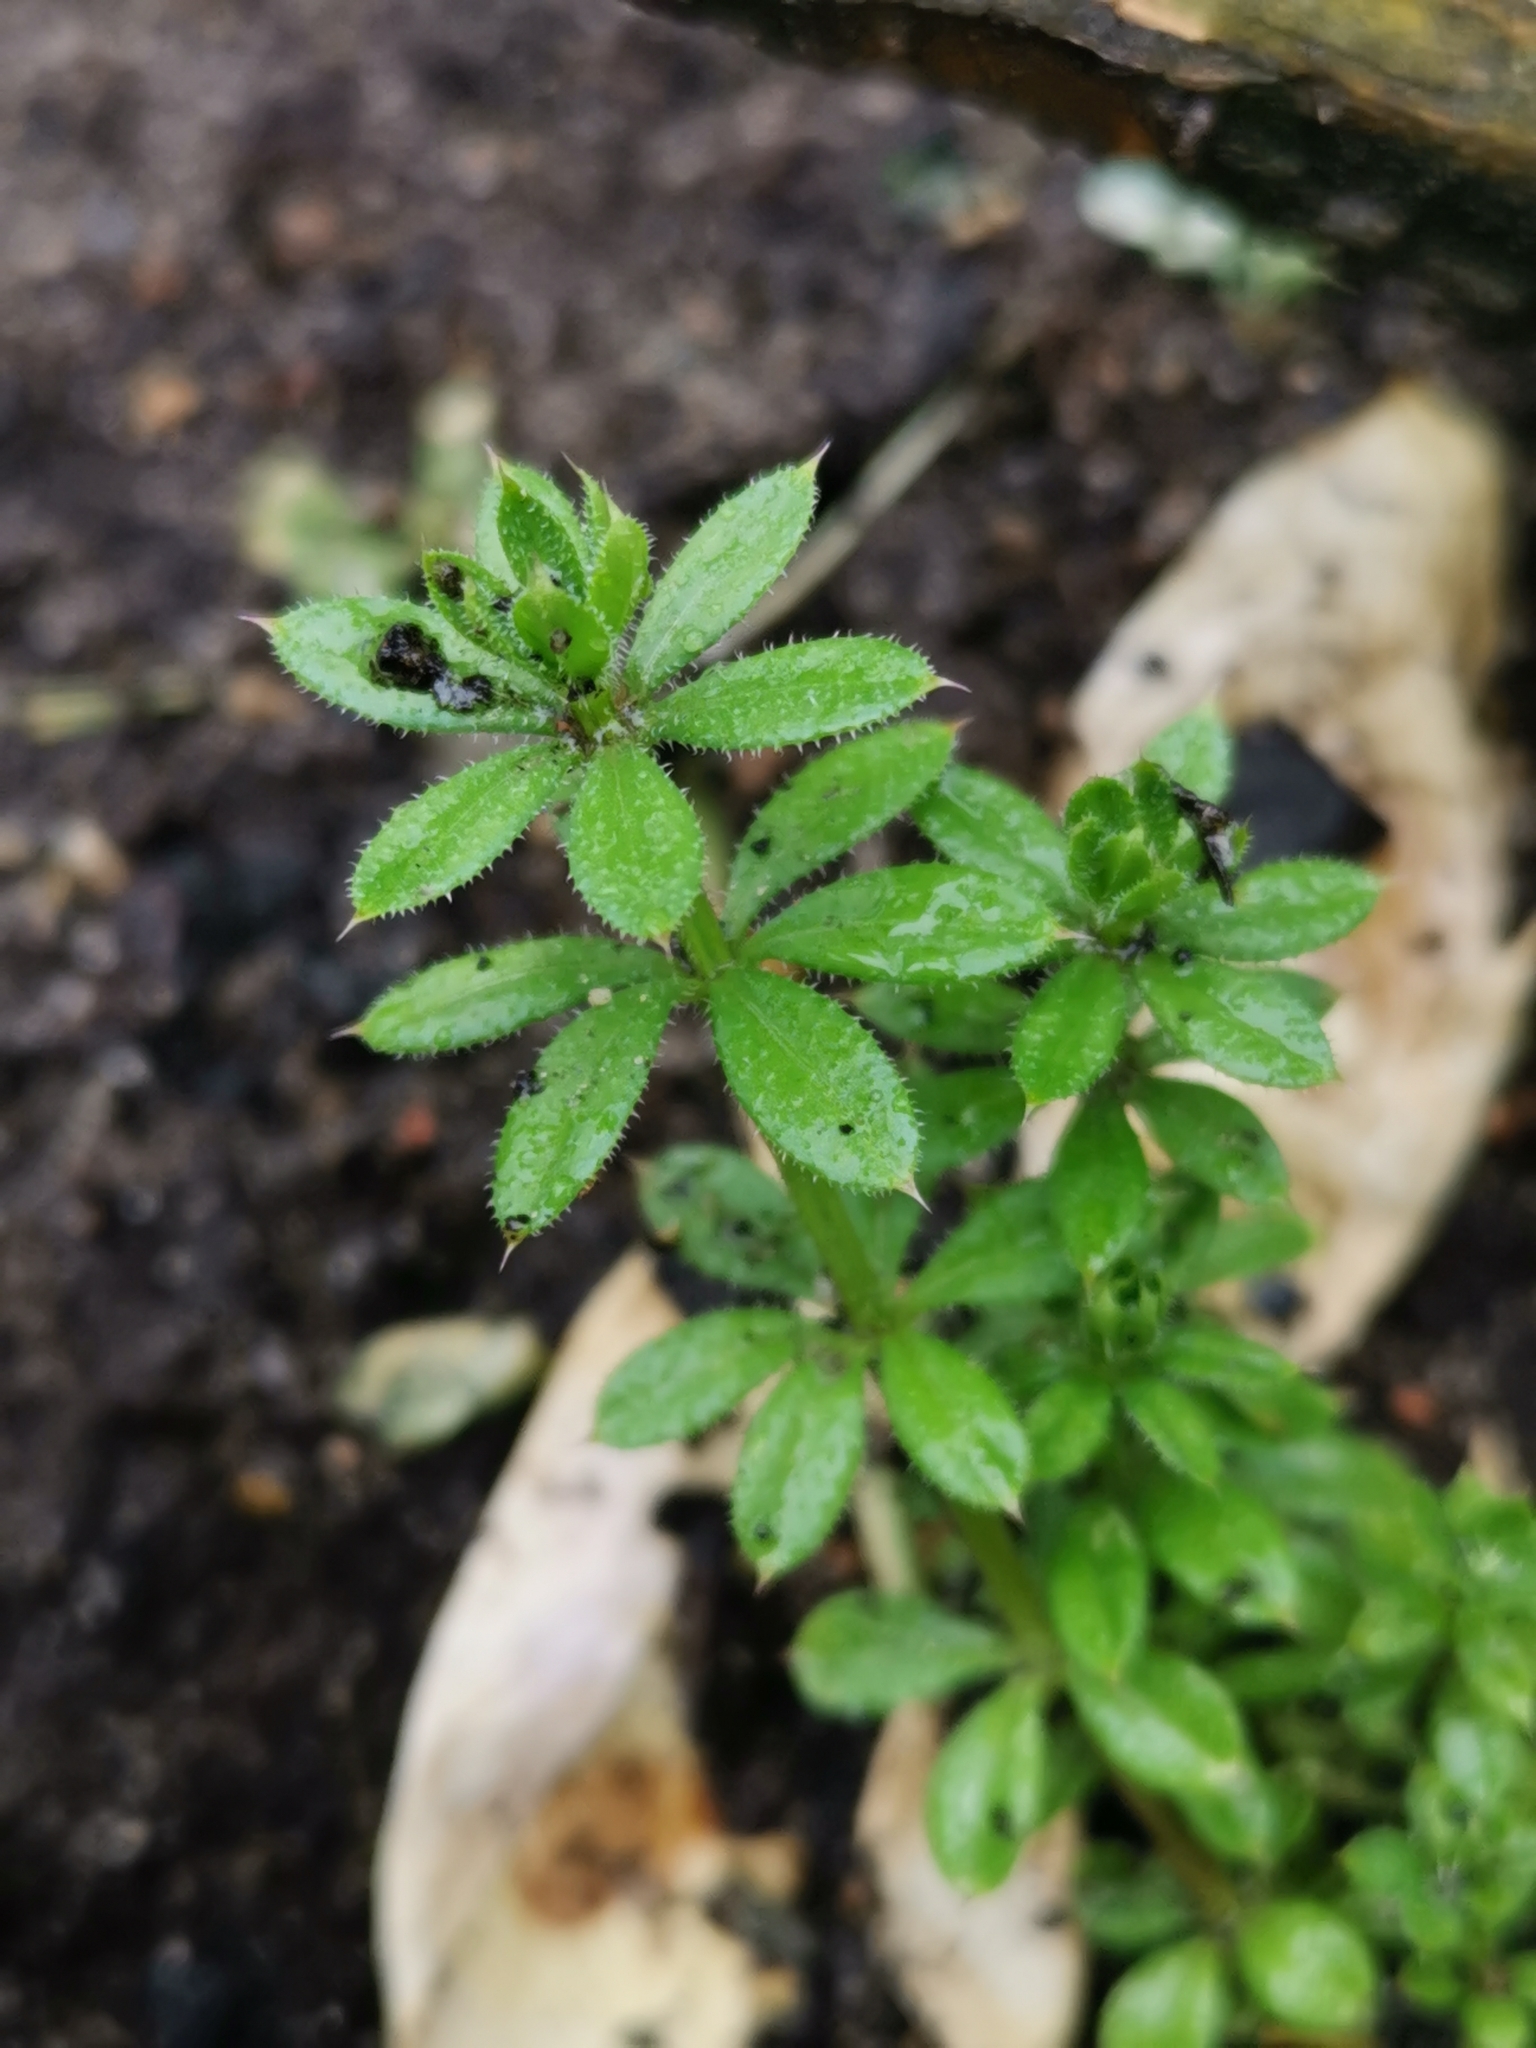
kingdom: Plantae
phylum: Tracheophyta
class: Magnoliopsida
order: Gentianales
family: Rubiaceae
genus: Galium
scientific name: Galium aparine
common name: Cleavers
